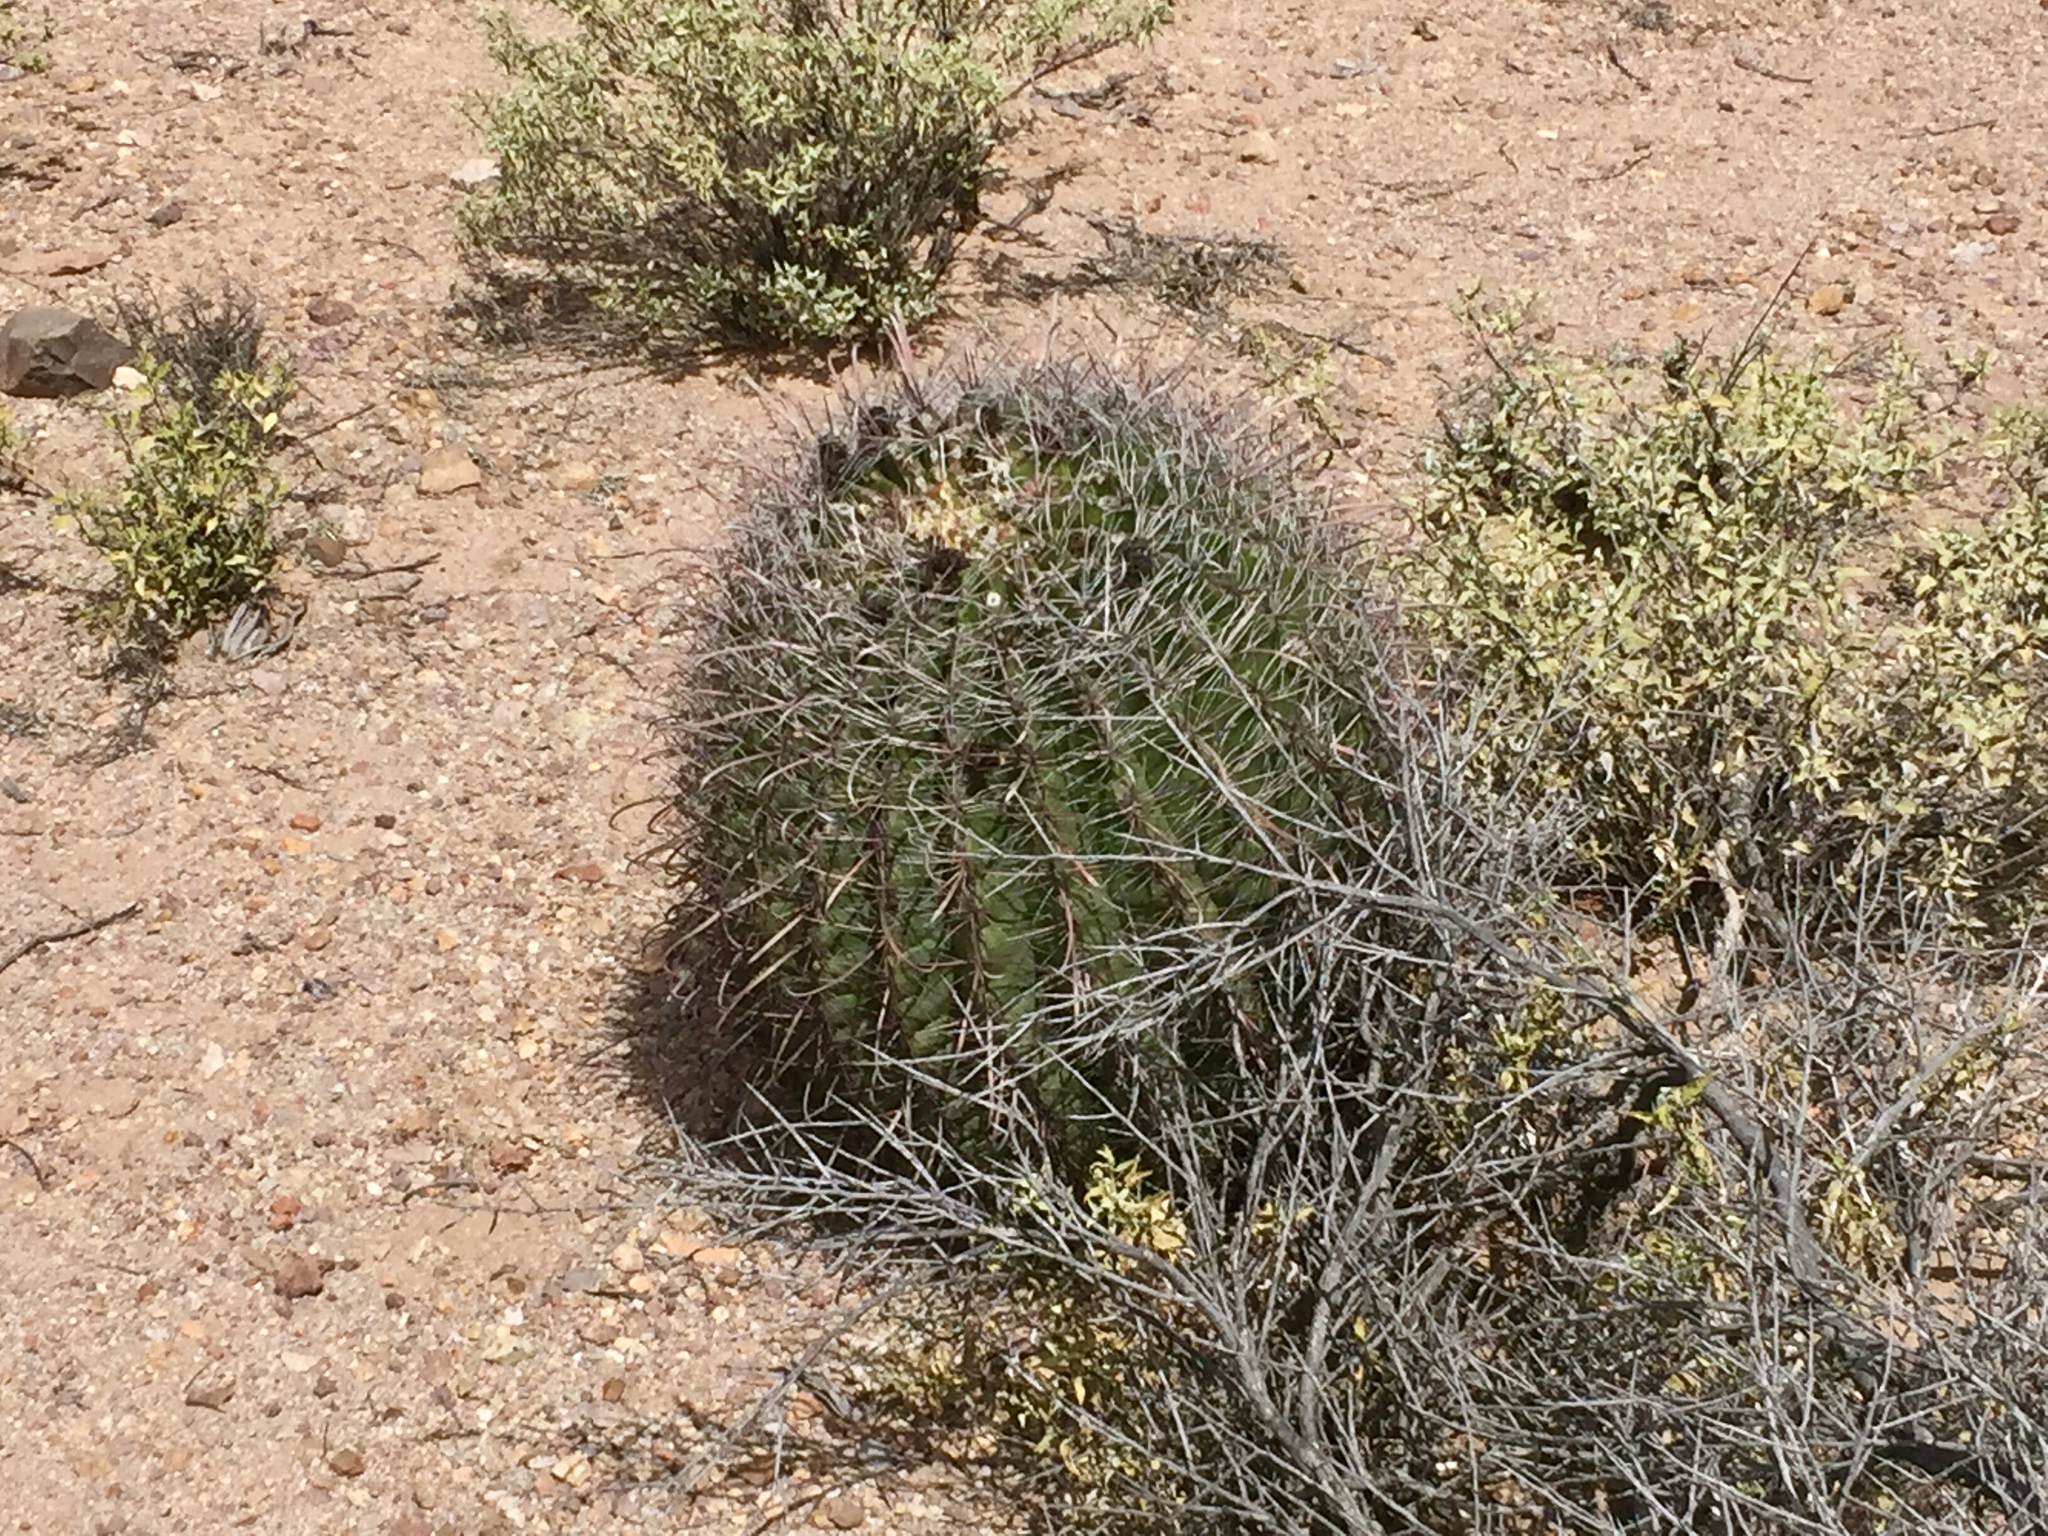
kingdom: Plantae
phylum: Tracheophyta
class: Magnoliopsida
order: Caryophyllales
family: Cactaceae
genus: Ferocactus
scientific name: Ferocactus wislizeni
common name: Candy barrel cactus
